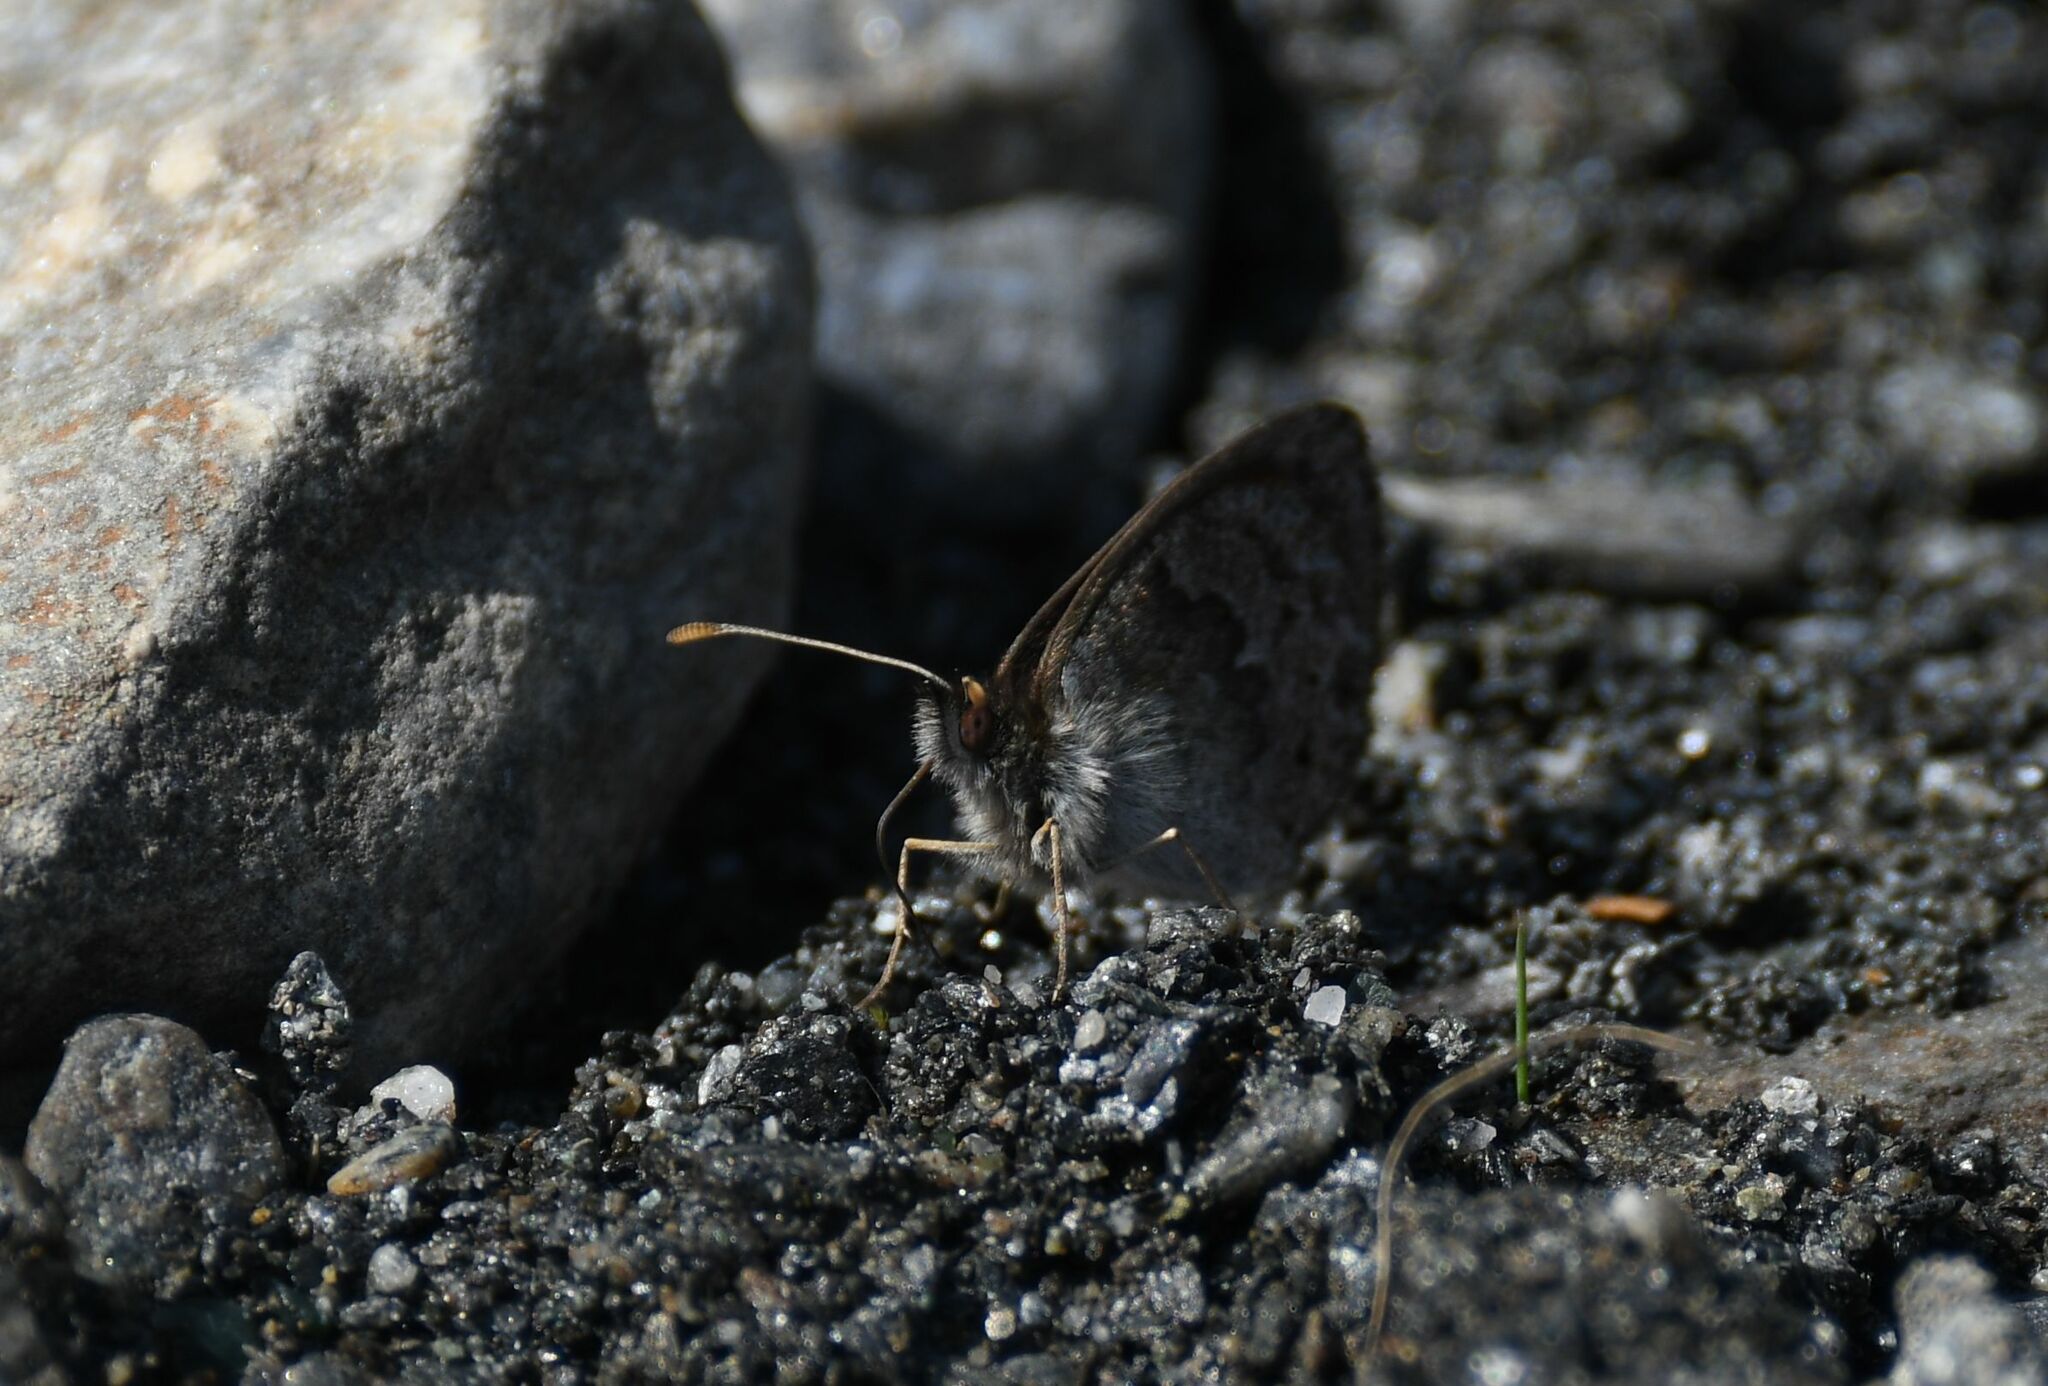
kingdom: Animalia
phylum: Arthropoda
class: Insecta
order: Lepidoptera
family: Nymphalidae
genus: Erebia
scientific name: Erebia cassioides
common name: Common brassy ringlet
